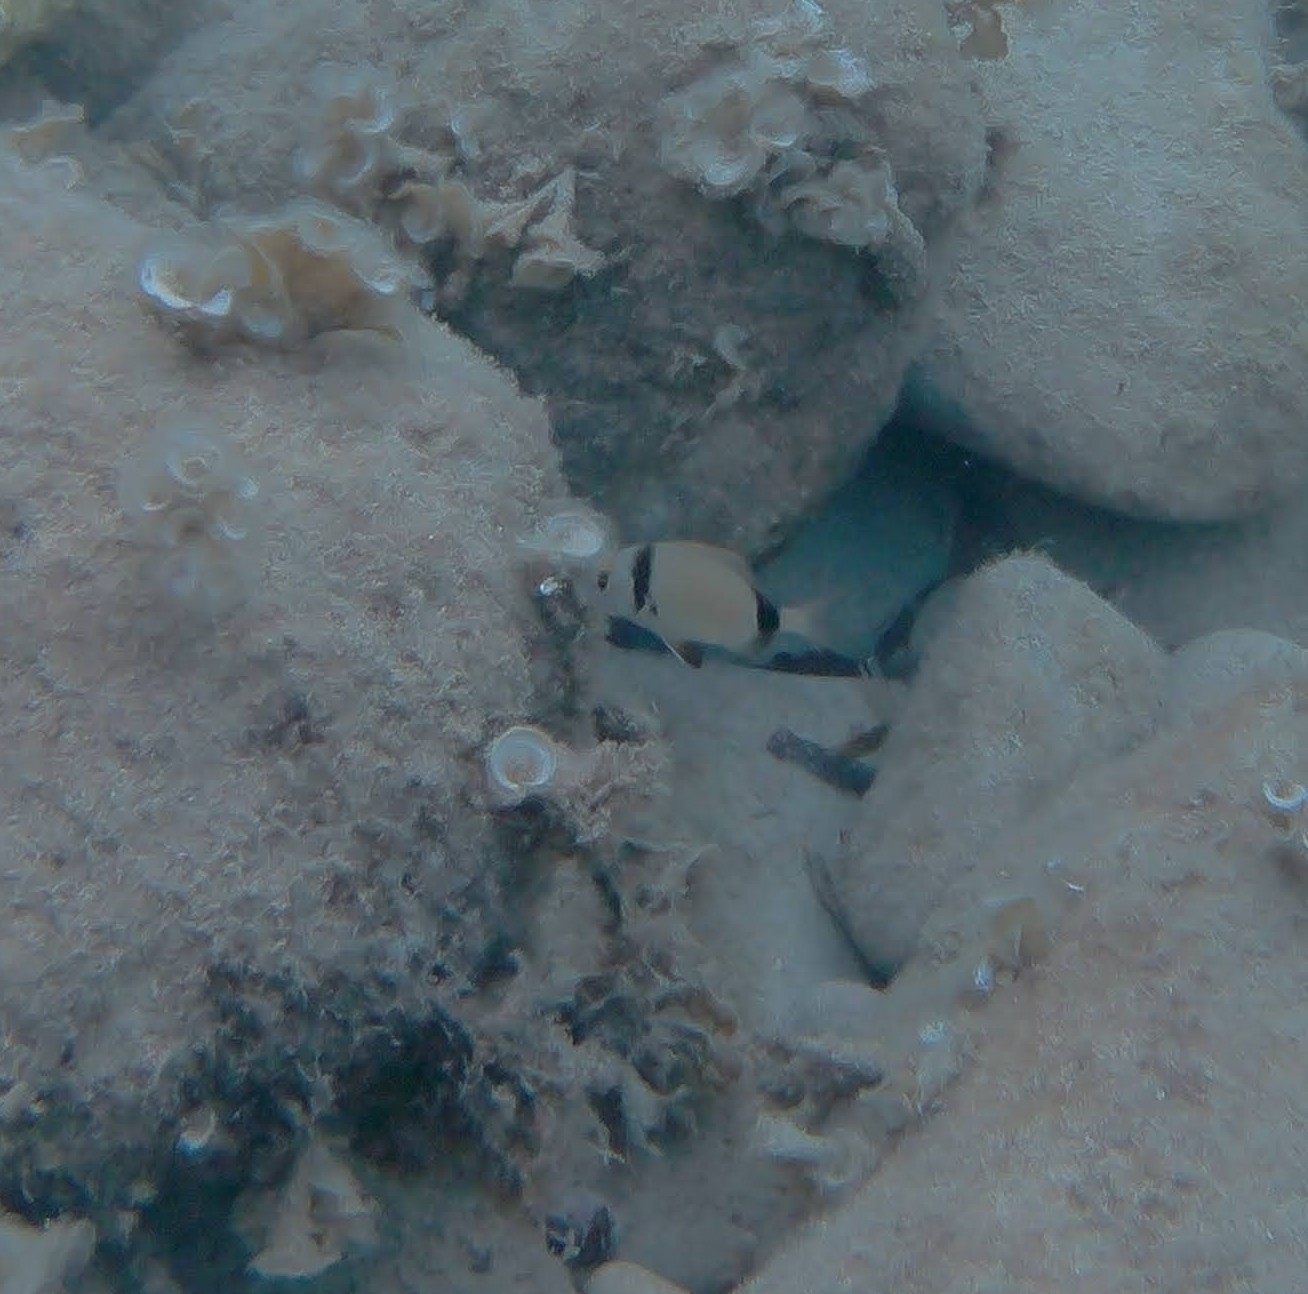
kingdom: Animalia
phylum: Chordata
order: Perciformes
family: Sparidae
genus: Diplodus
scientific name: Diplodus vulgaris
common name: Common two-banded seabream
